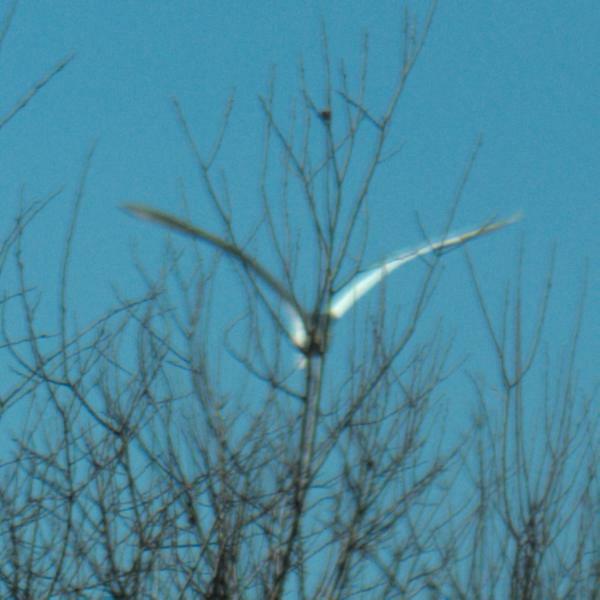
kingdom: Animalia
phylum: Chordata
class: Aves
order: Strigiformes
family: Strigidae
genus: Bubo
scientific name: Bubo scandiacus
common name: Snowy owl
